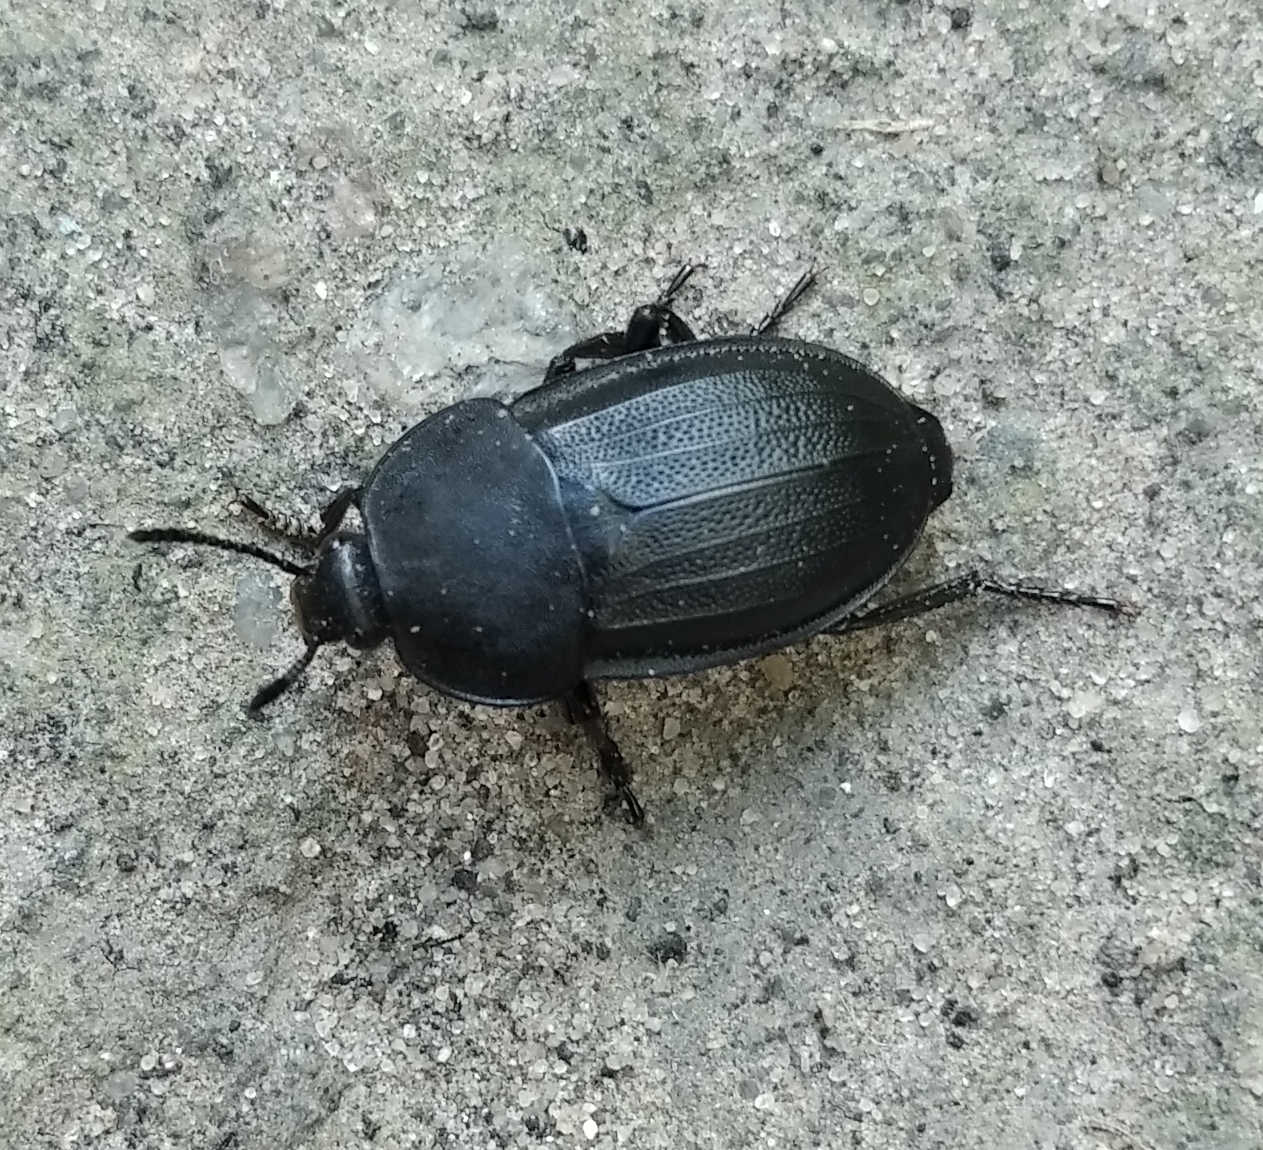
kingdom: Animalia
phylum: Arthropoda
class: Insecta
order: Coleoptera
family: Staphylinidae
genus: Silpha
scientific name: Silpha obscura
